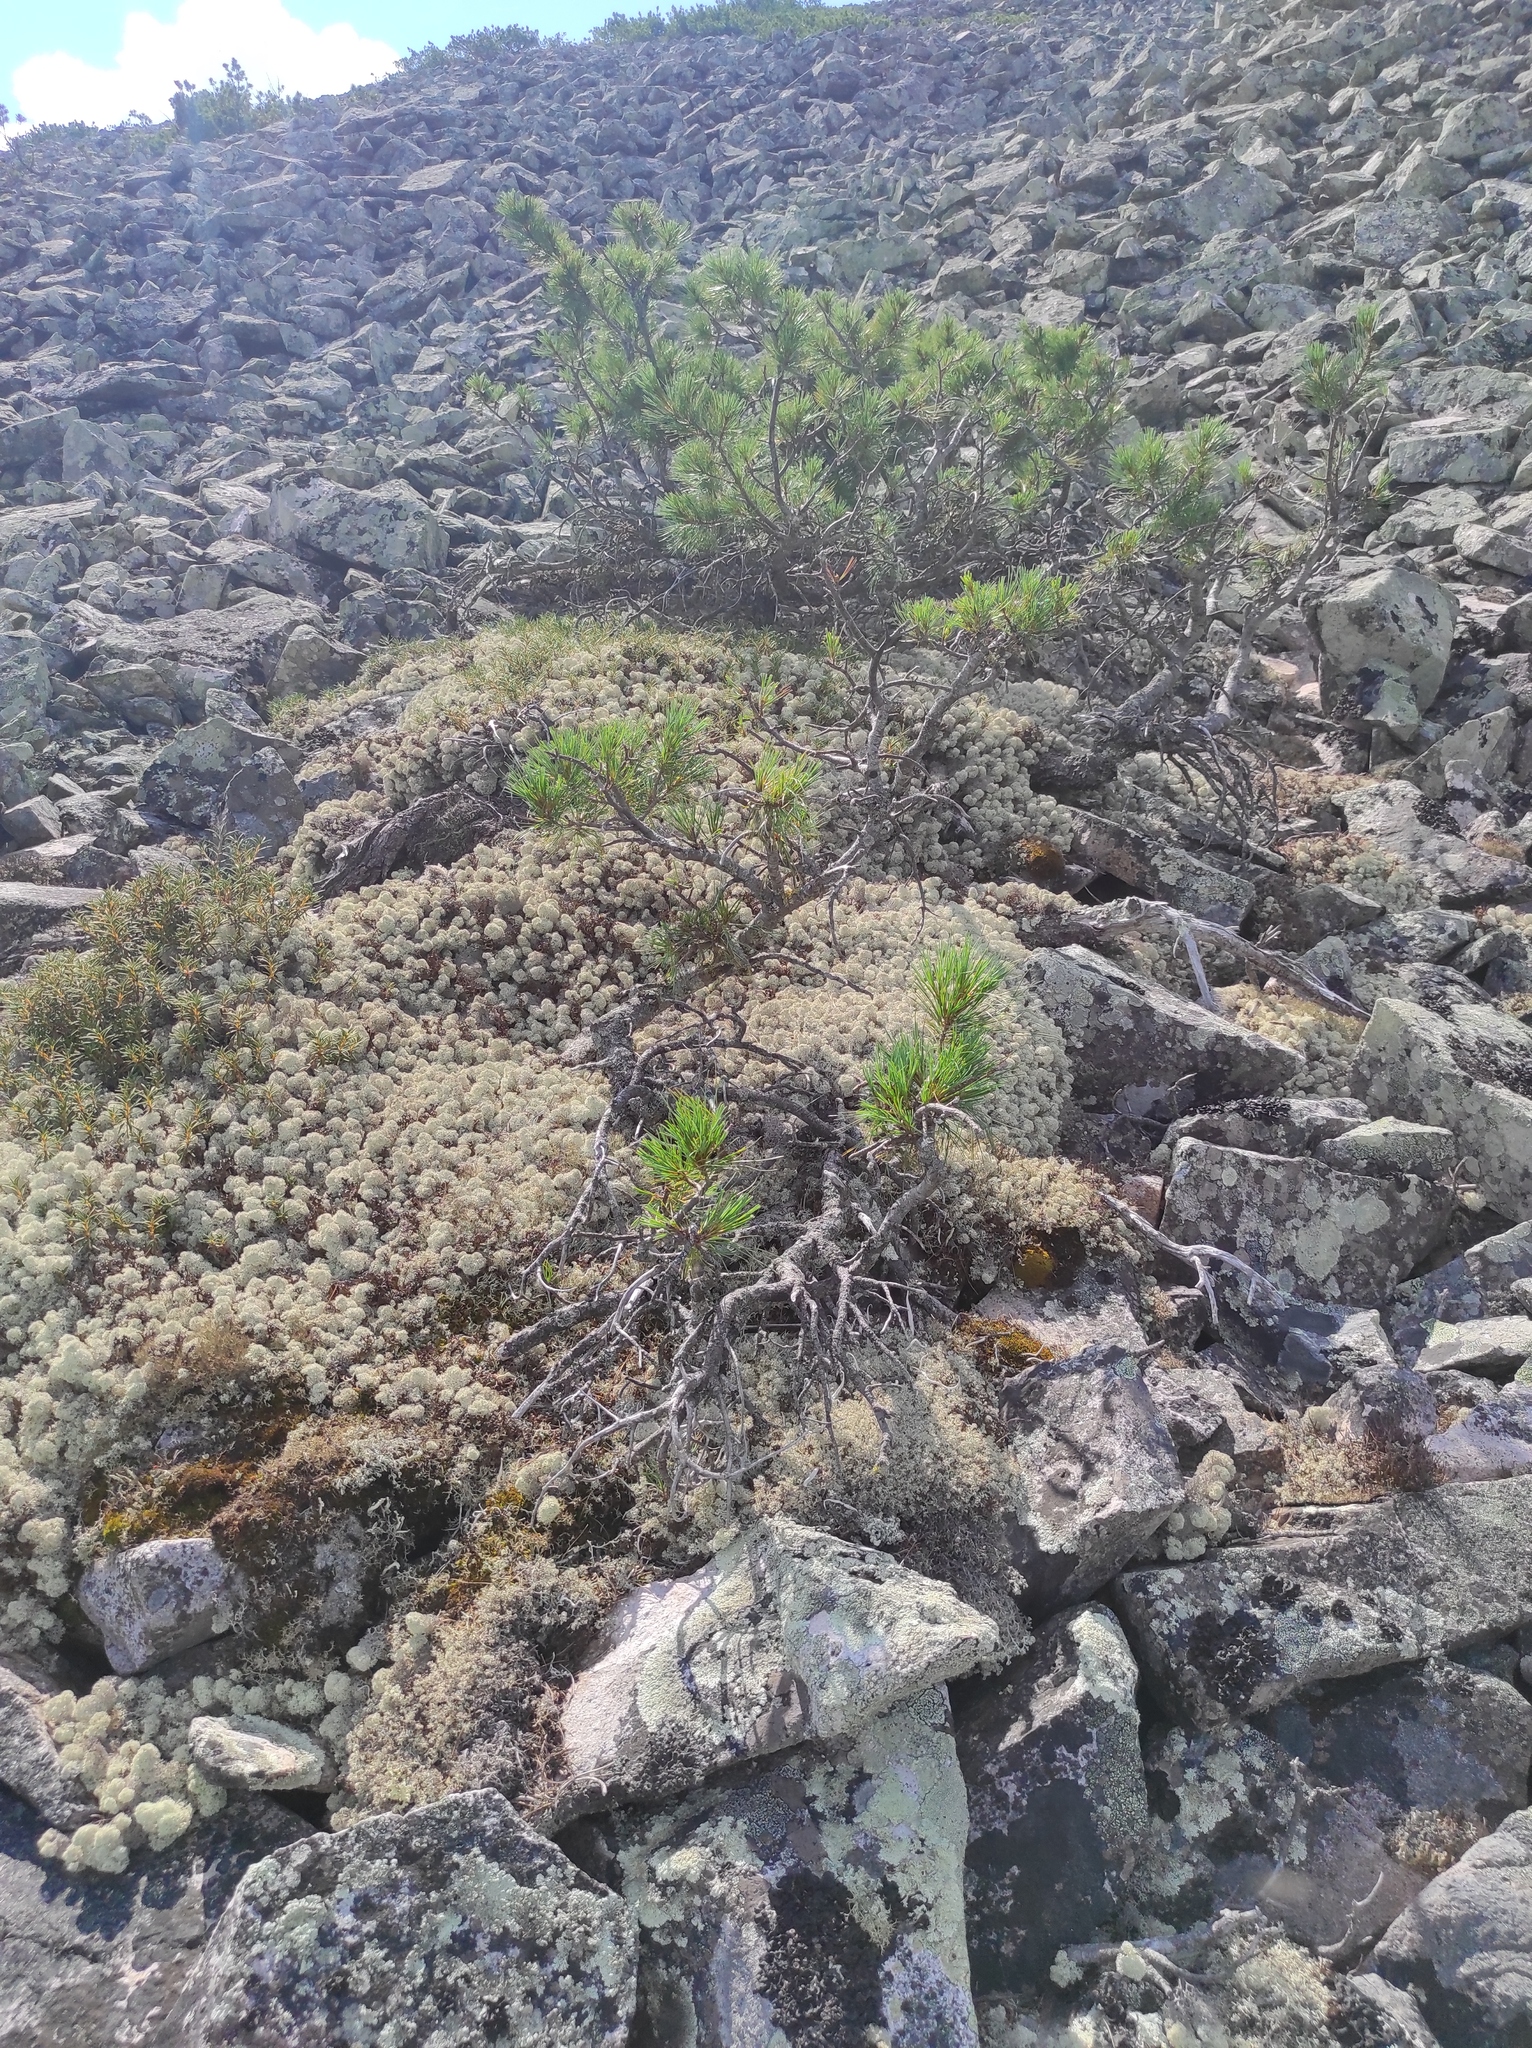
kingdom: Plantae
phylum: Tracheophyta
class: Magnoliopsida
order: Ericales
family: Ericaceae
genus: Rhododendron
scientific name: Rhododendron tomentosum
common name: Marsh labrador tea
